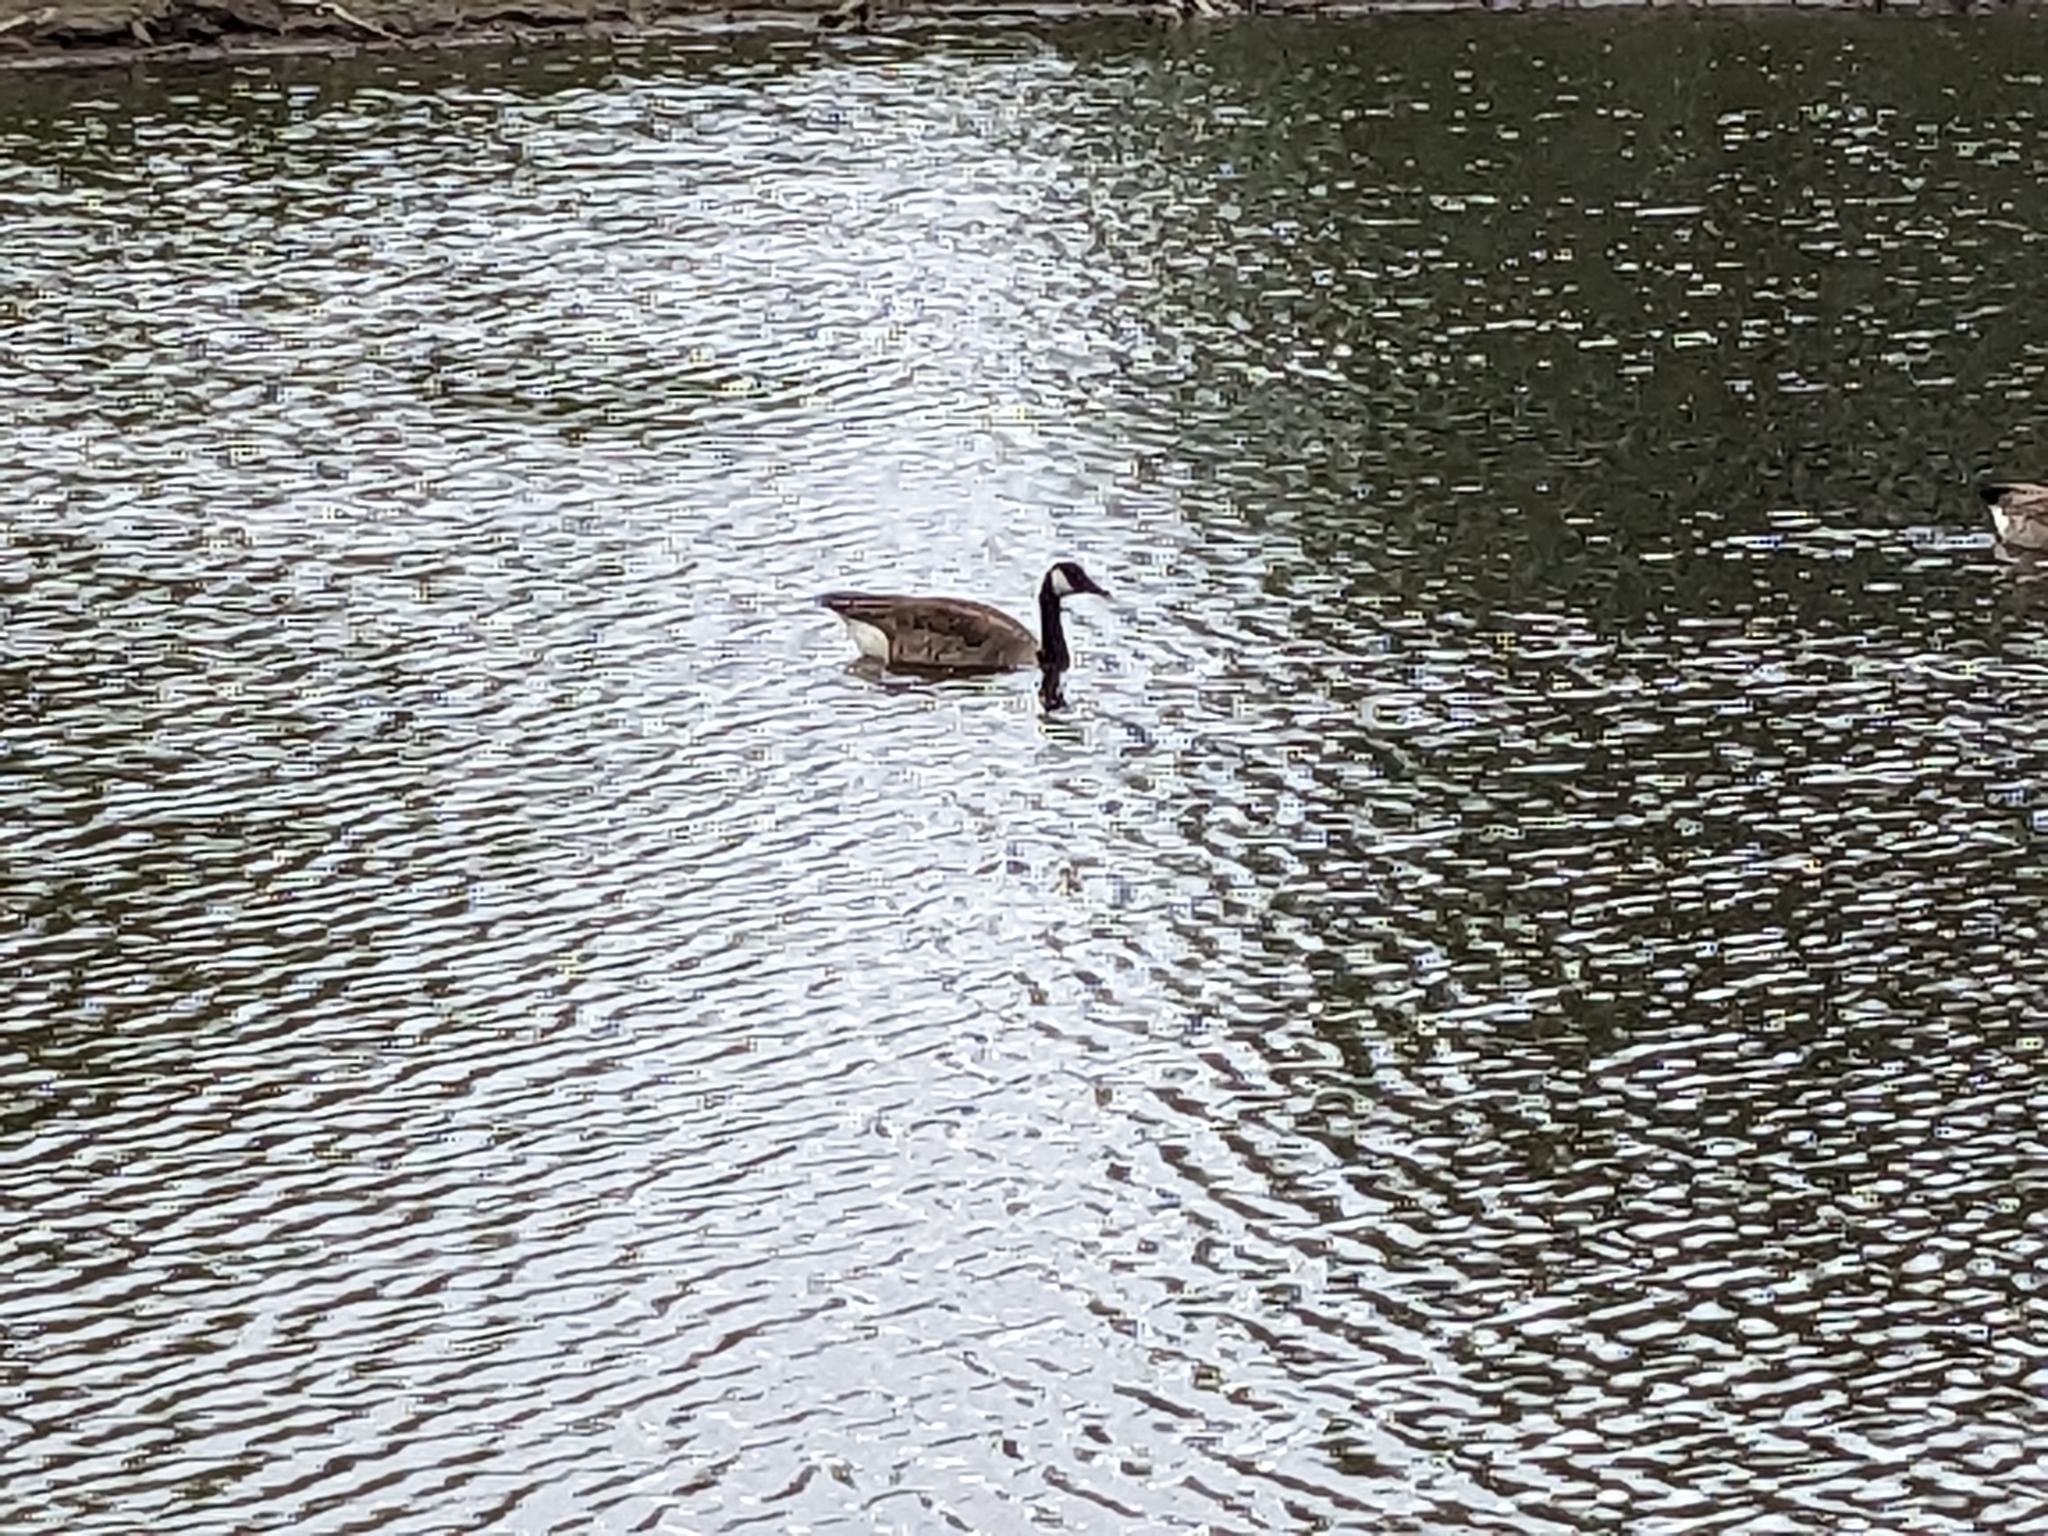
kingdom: Animalia
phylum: Chordata
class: Aves
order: Anseriformes
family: Anatidae
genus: Branta
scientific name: Branta canadensis
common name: Canada goose
